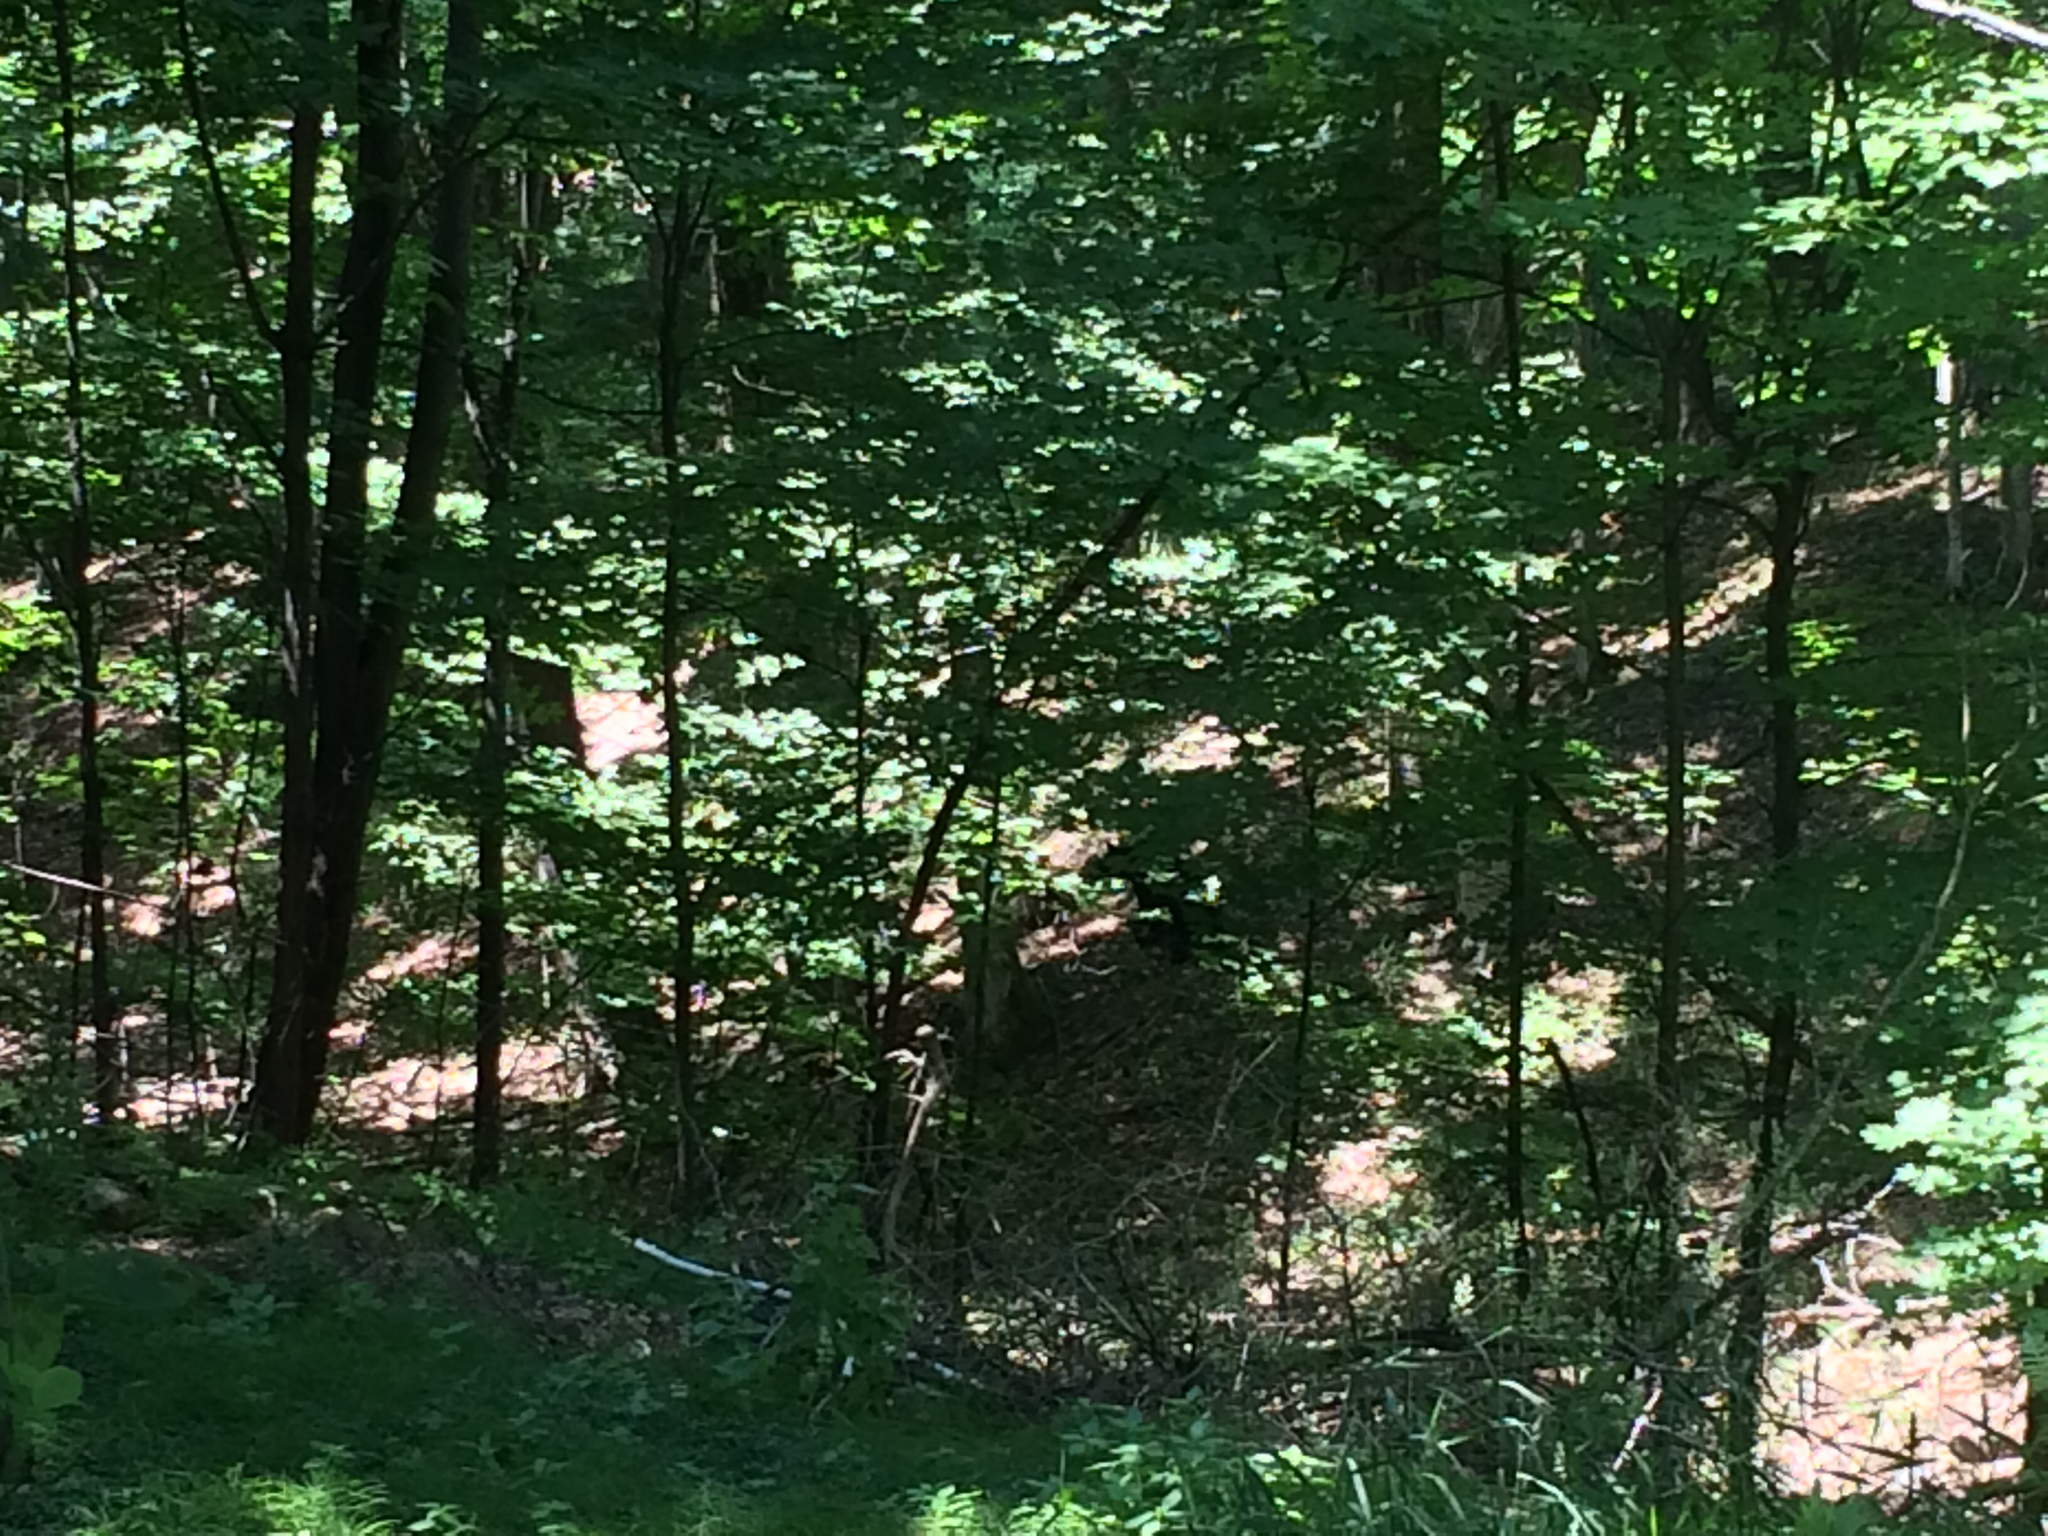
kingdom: Animalia
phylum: Chordata
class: Mammalia
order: Carnivora
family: Ursidae
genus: Ursus
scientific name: Ursus americanus
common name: American black bear
